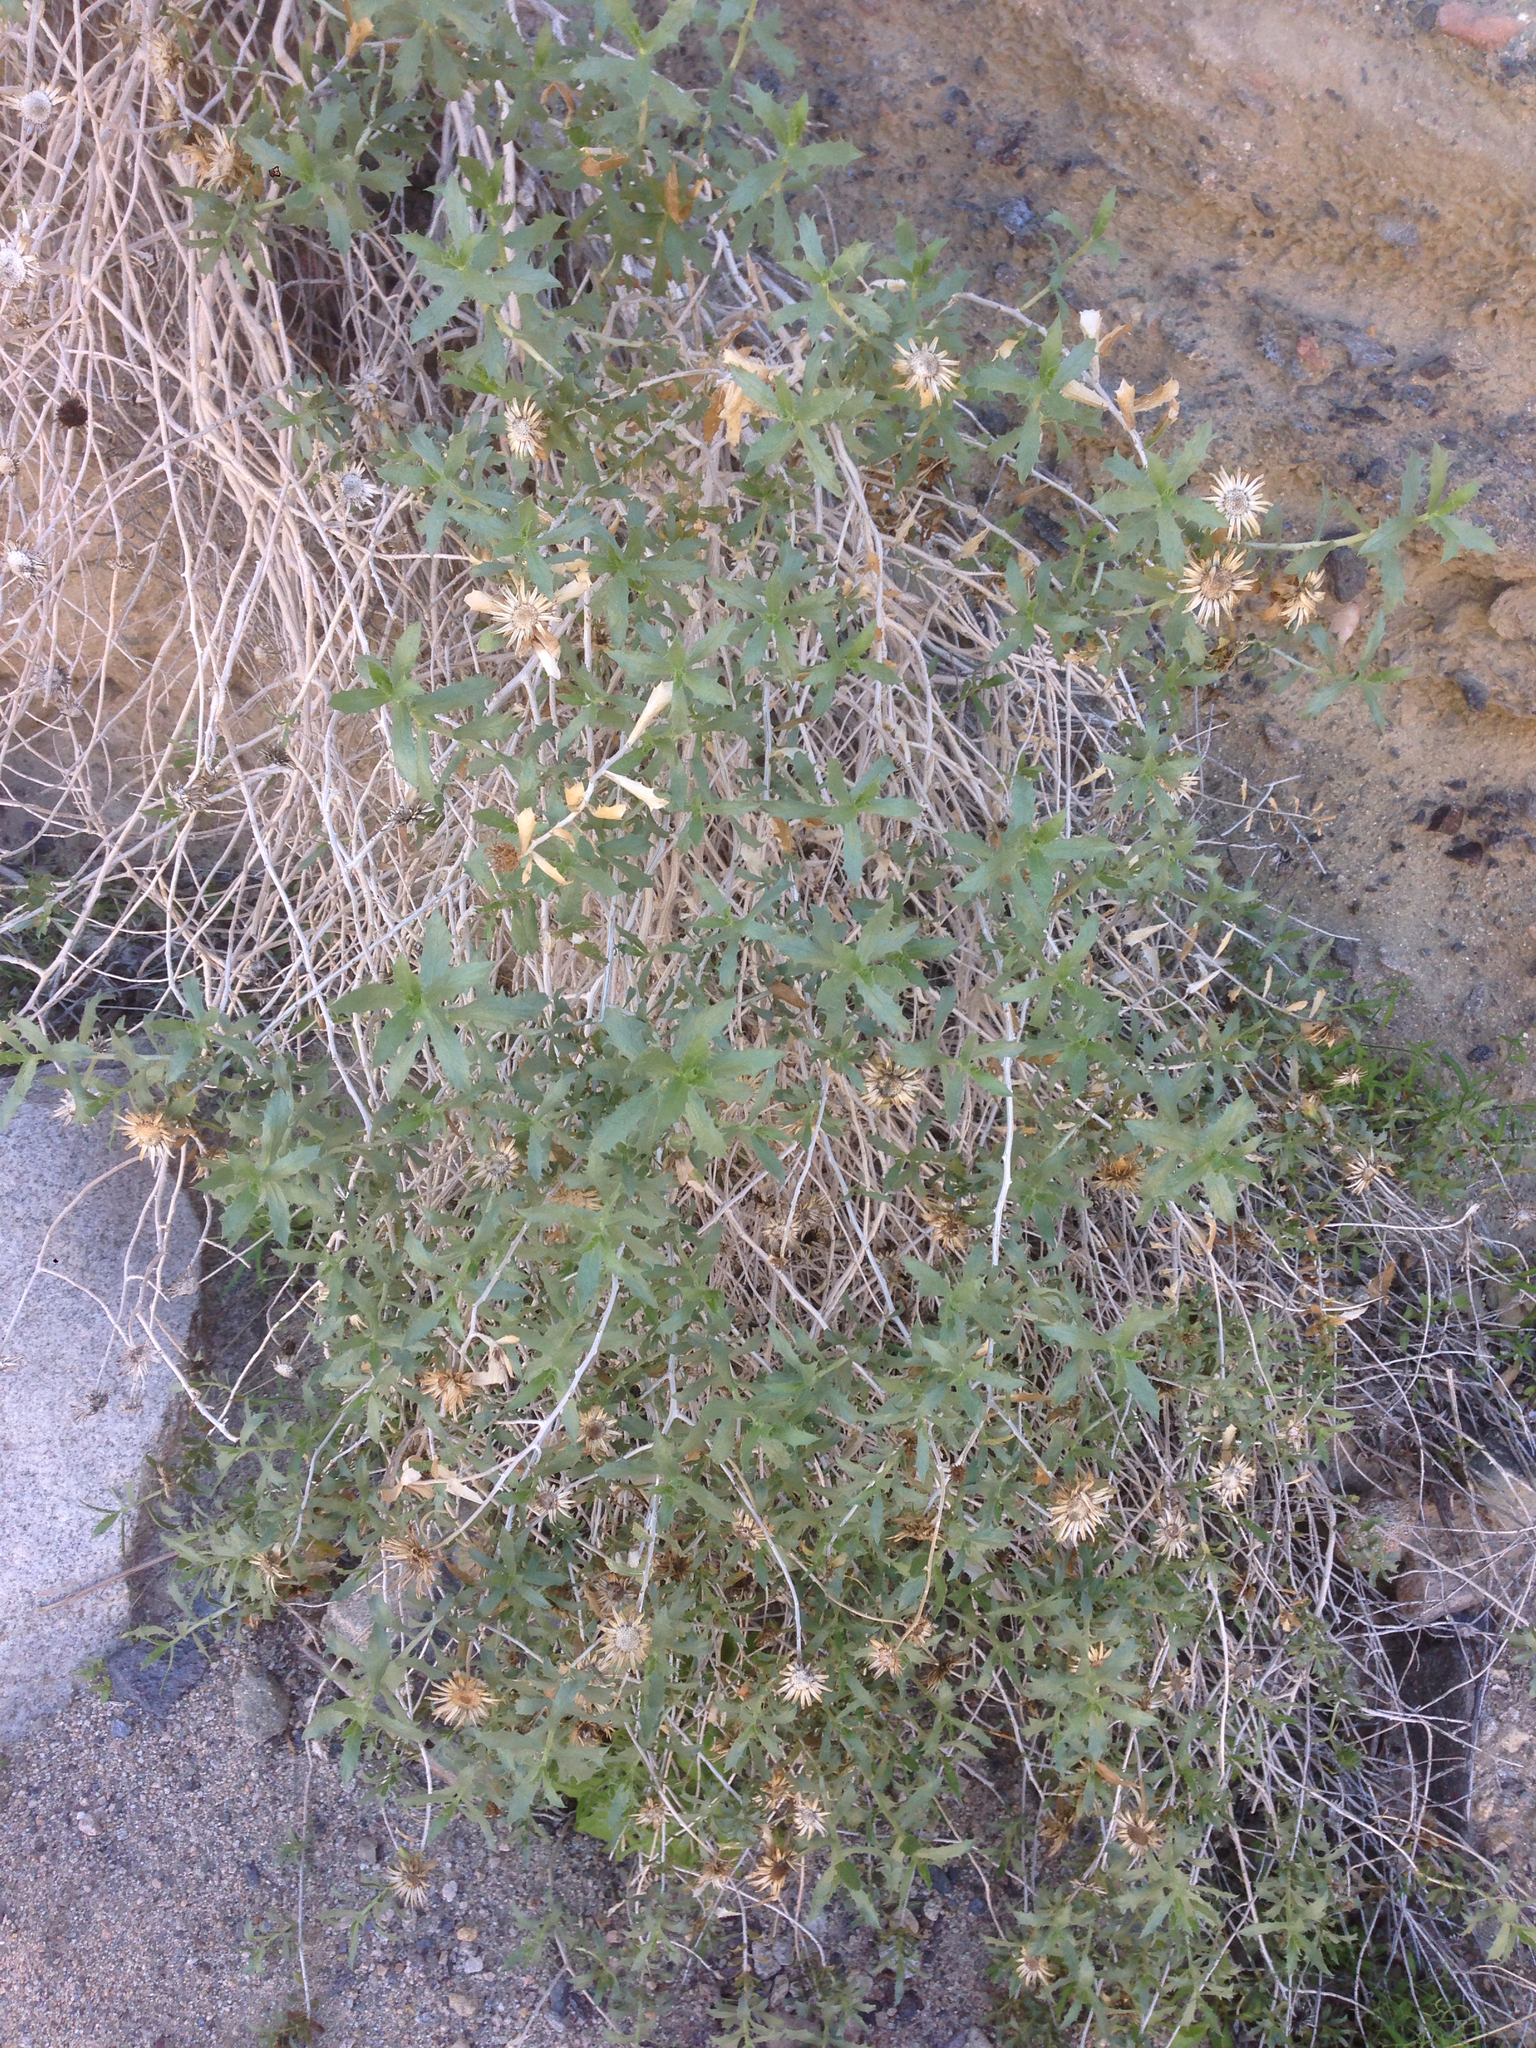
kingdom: Plantae
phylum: Tracheophyta
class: Magnoliopsida
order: Asterales
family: Asteraceae
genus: Xylorhiza
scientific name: Xylorhiza cognata
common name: Mecca woody-aster
